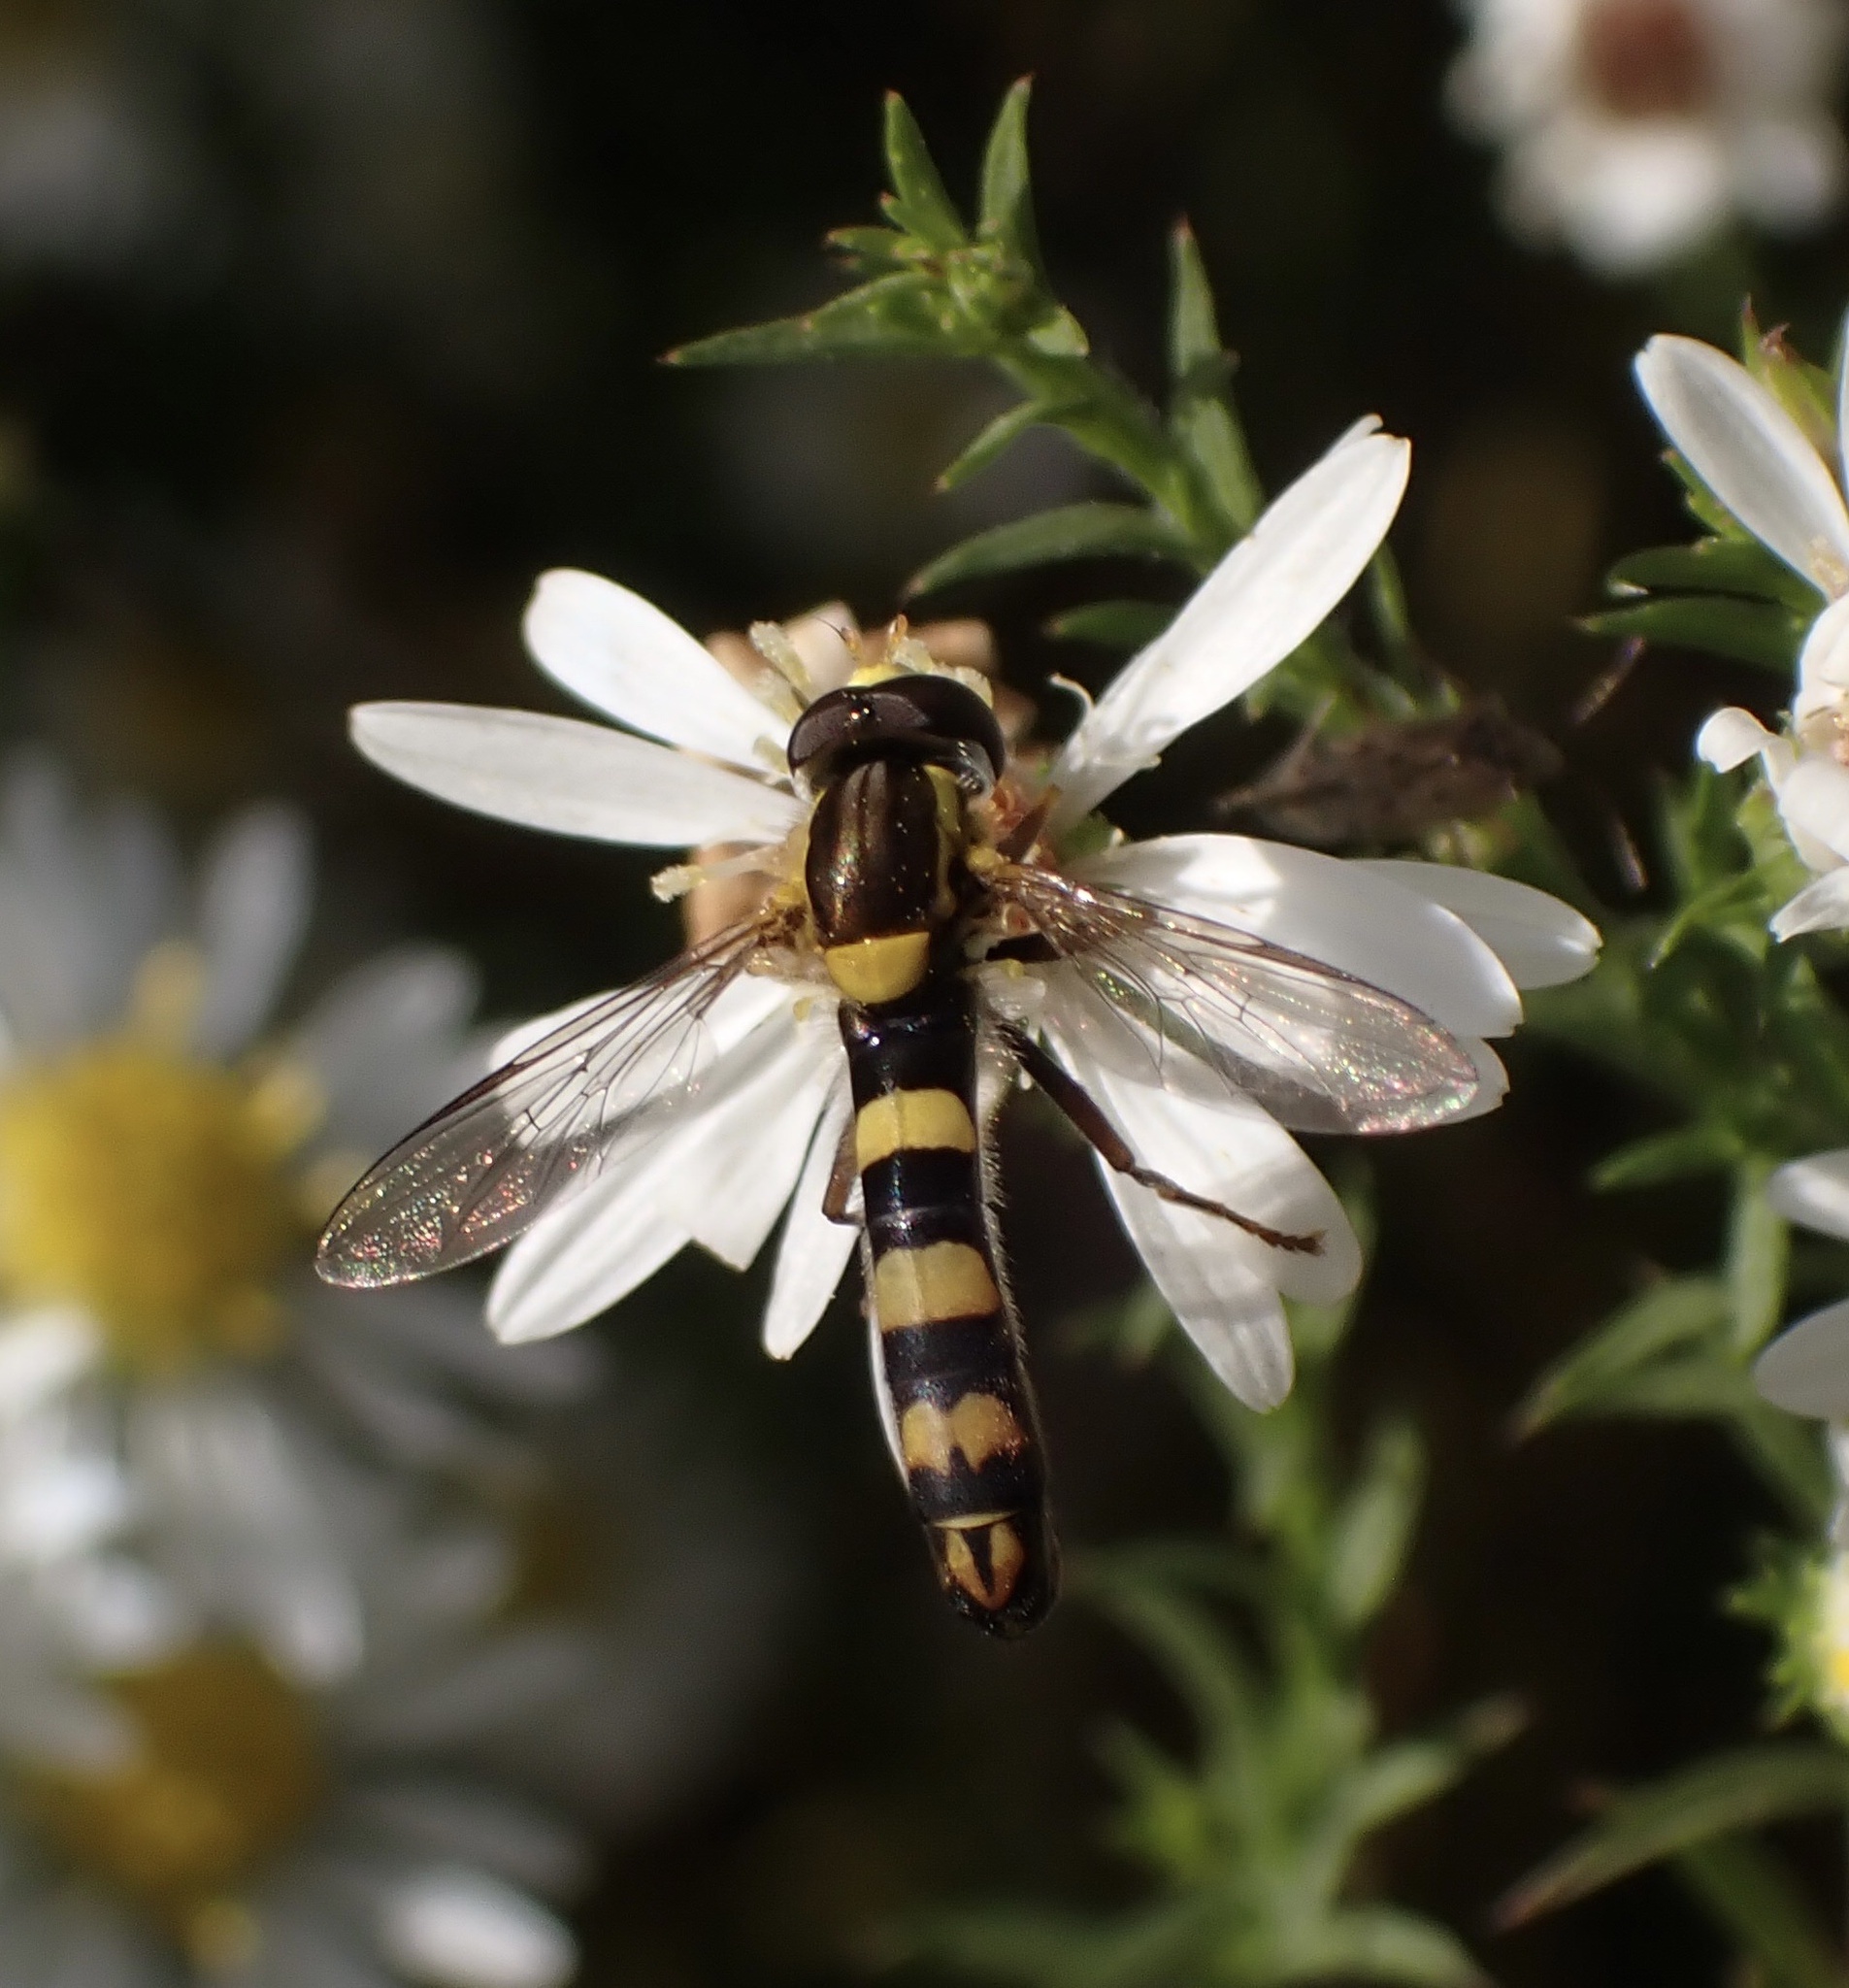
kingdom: Animalia
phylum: Arthropoda
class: Insecta
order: Diptera
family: Syrphidae
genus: Sphaerophoria
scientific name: Sphaerophoria scripta
